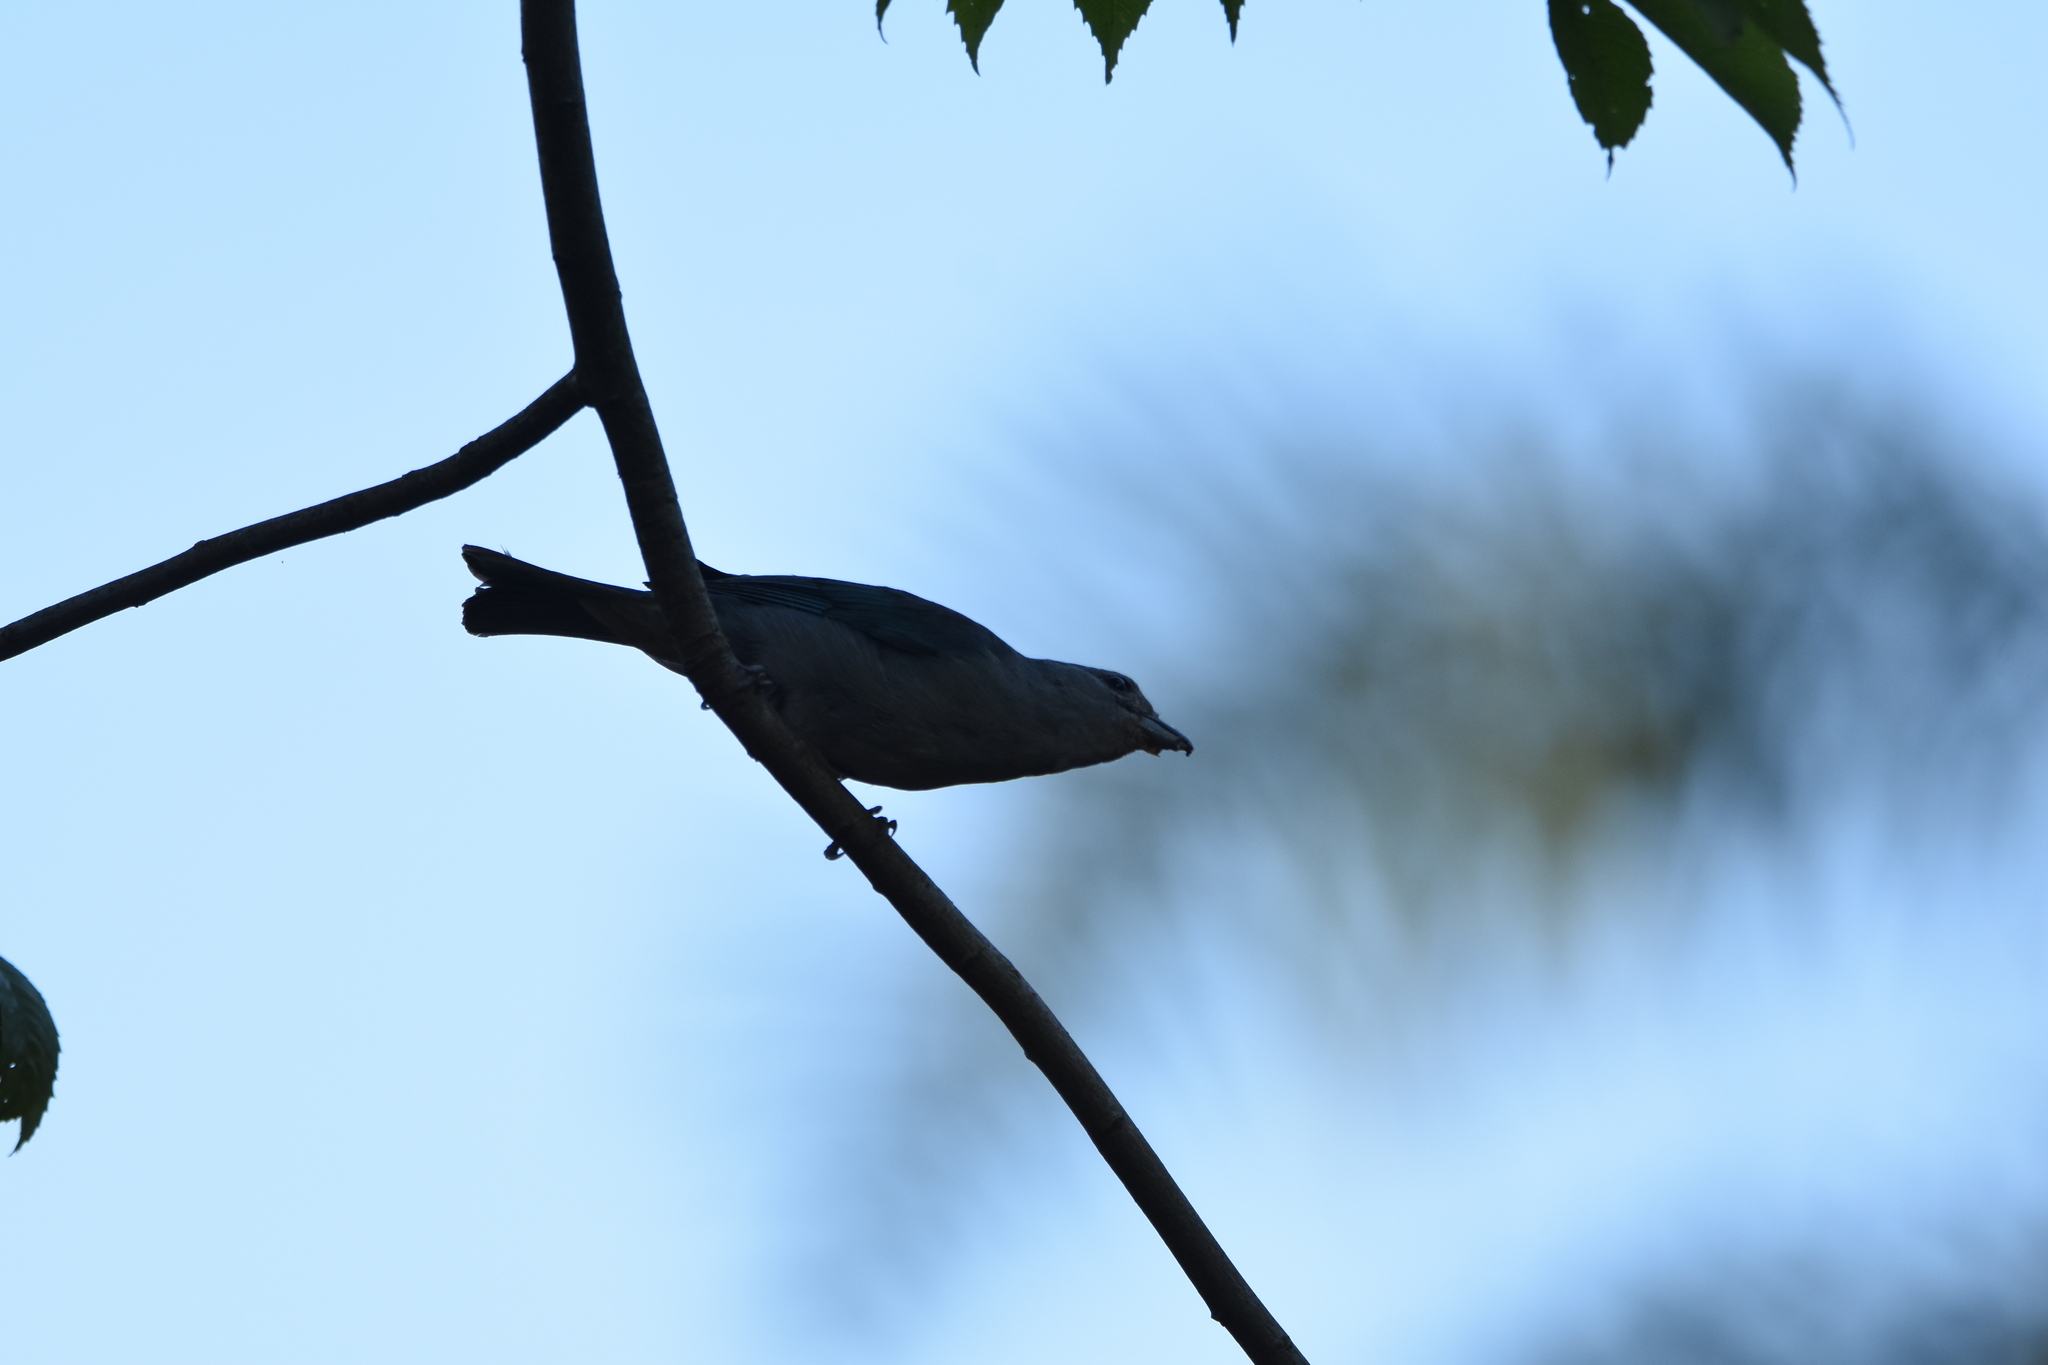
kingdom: Animalia
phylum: Chordata
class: Aves
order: Passeriformes
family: Thraupidae
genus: Thraupis
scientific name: Thraupis sayaca
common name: Sayaca tanager
